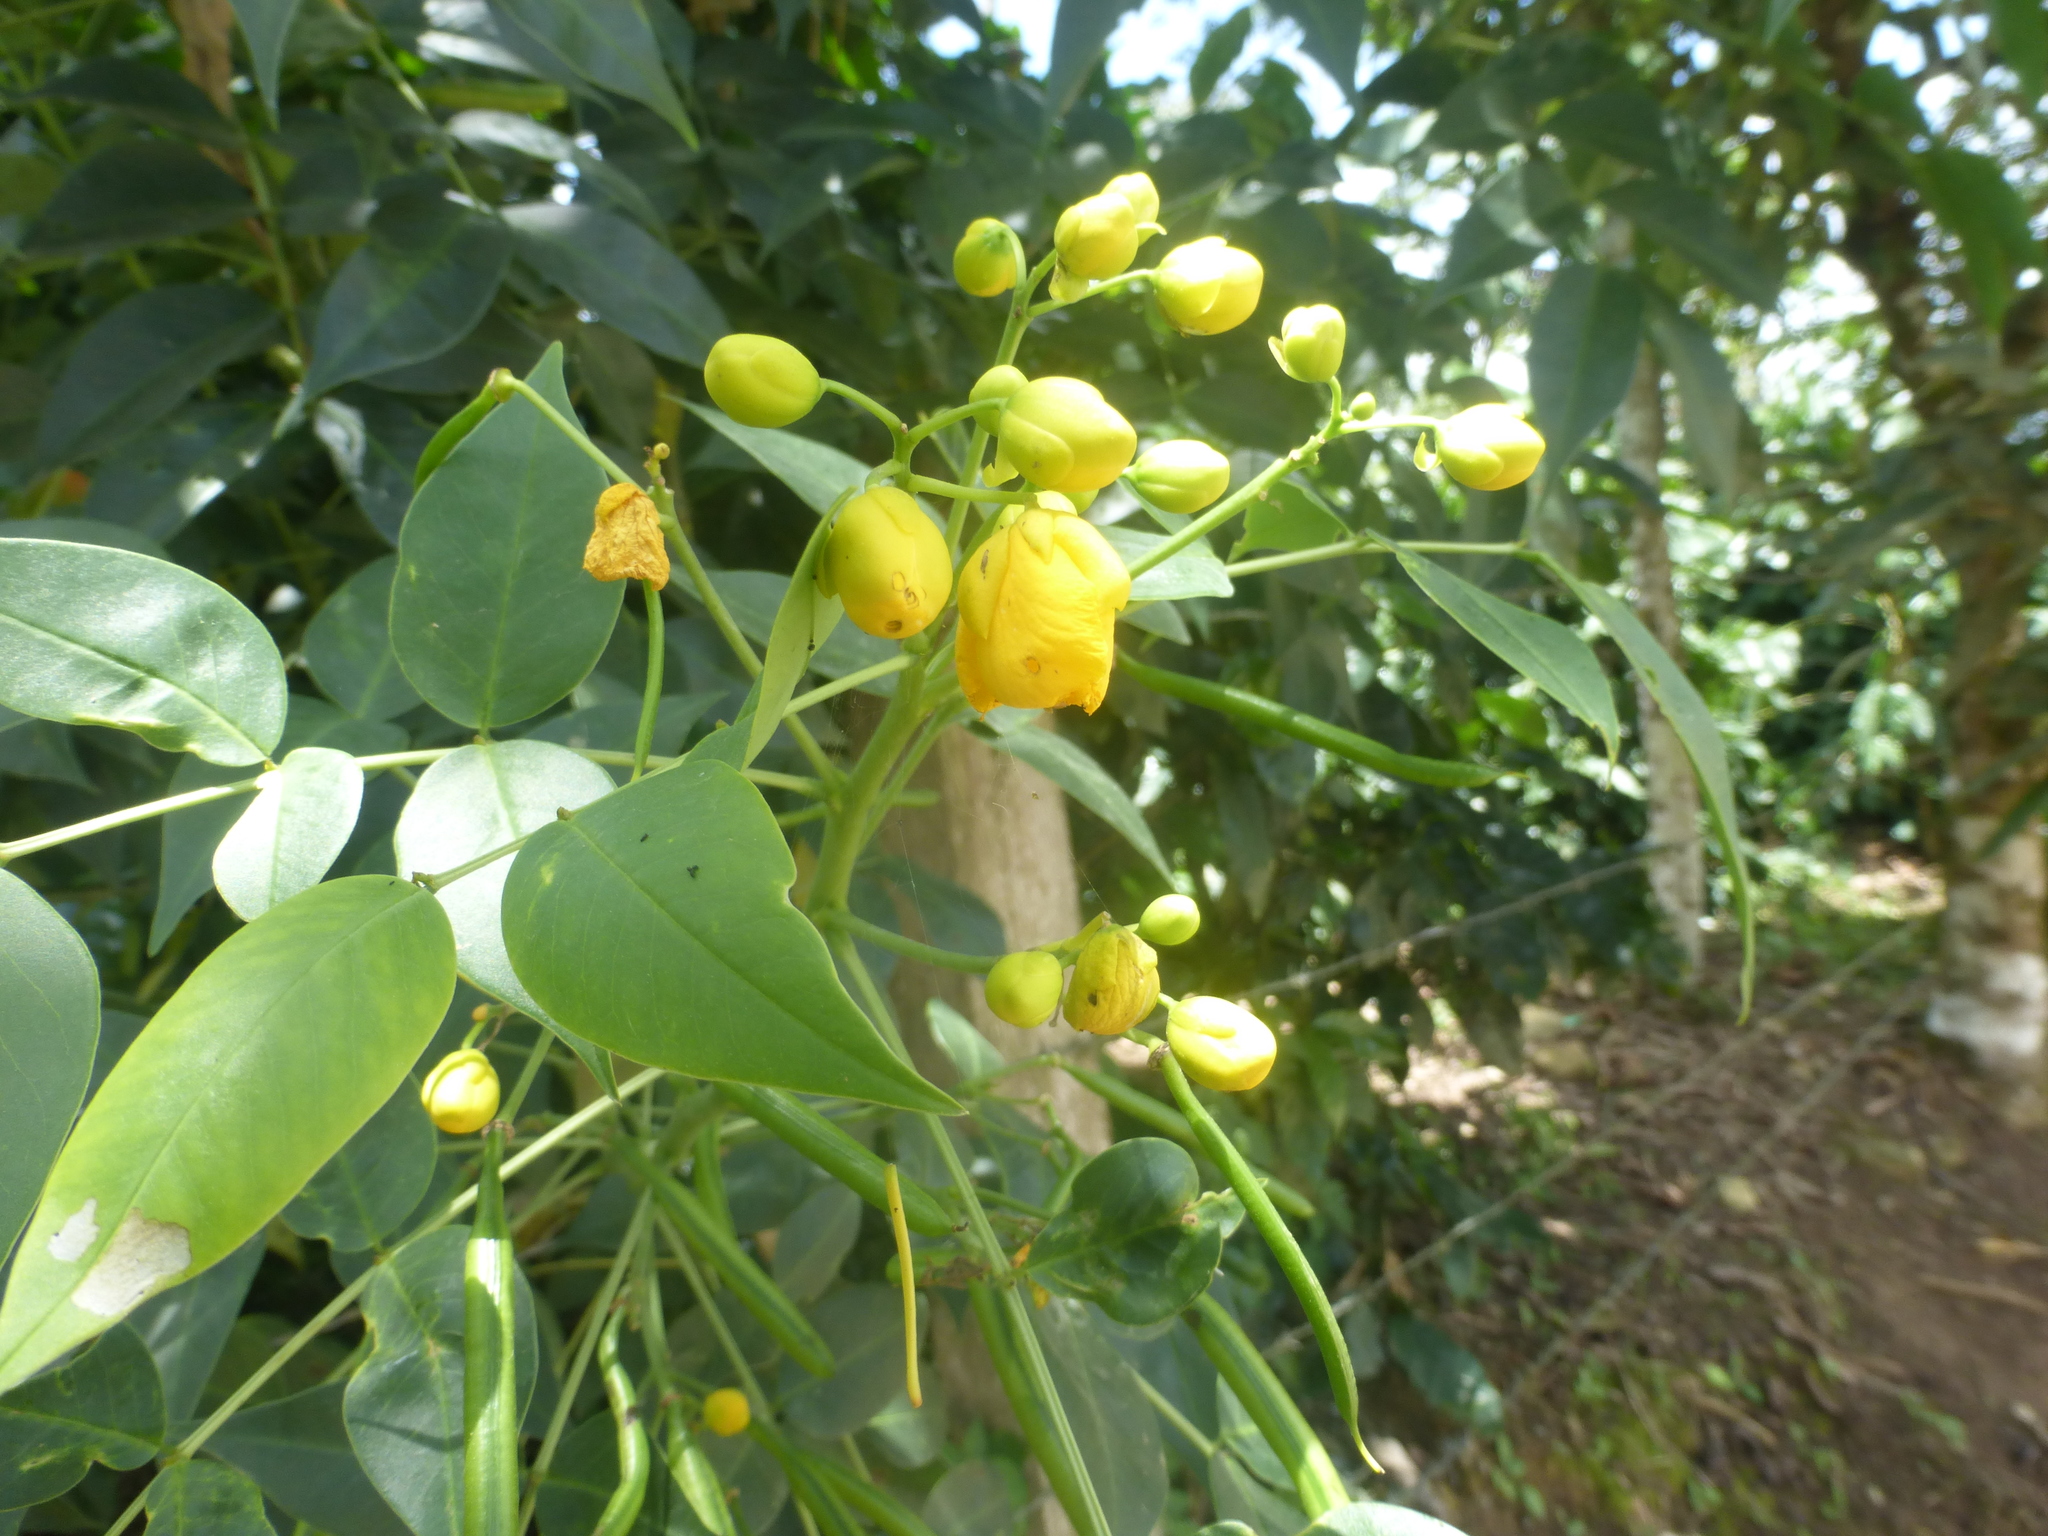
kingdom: Plantae
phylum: Tracheophyta
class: Magnoliopsida
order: Fabales
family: Fabaceae
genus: Senna
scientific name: Senna septemtrionalis
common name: Arsenic bush
